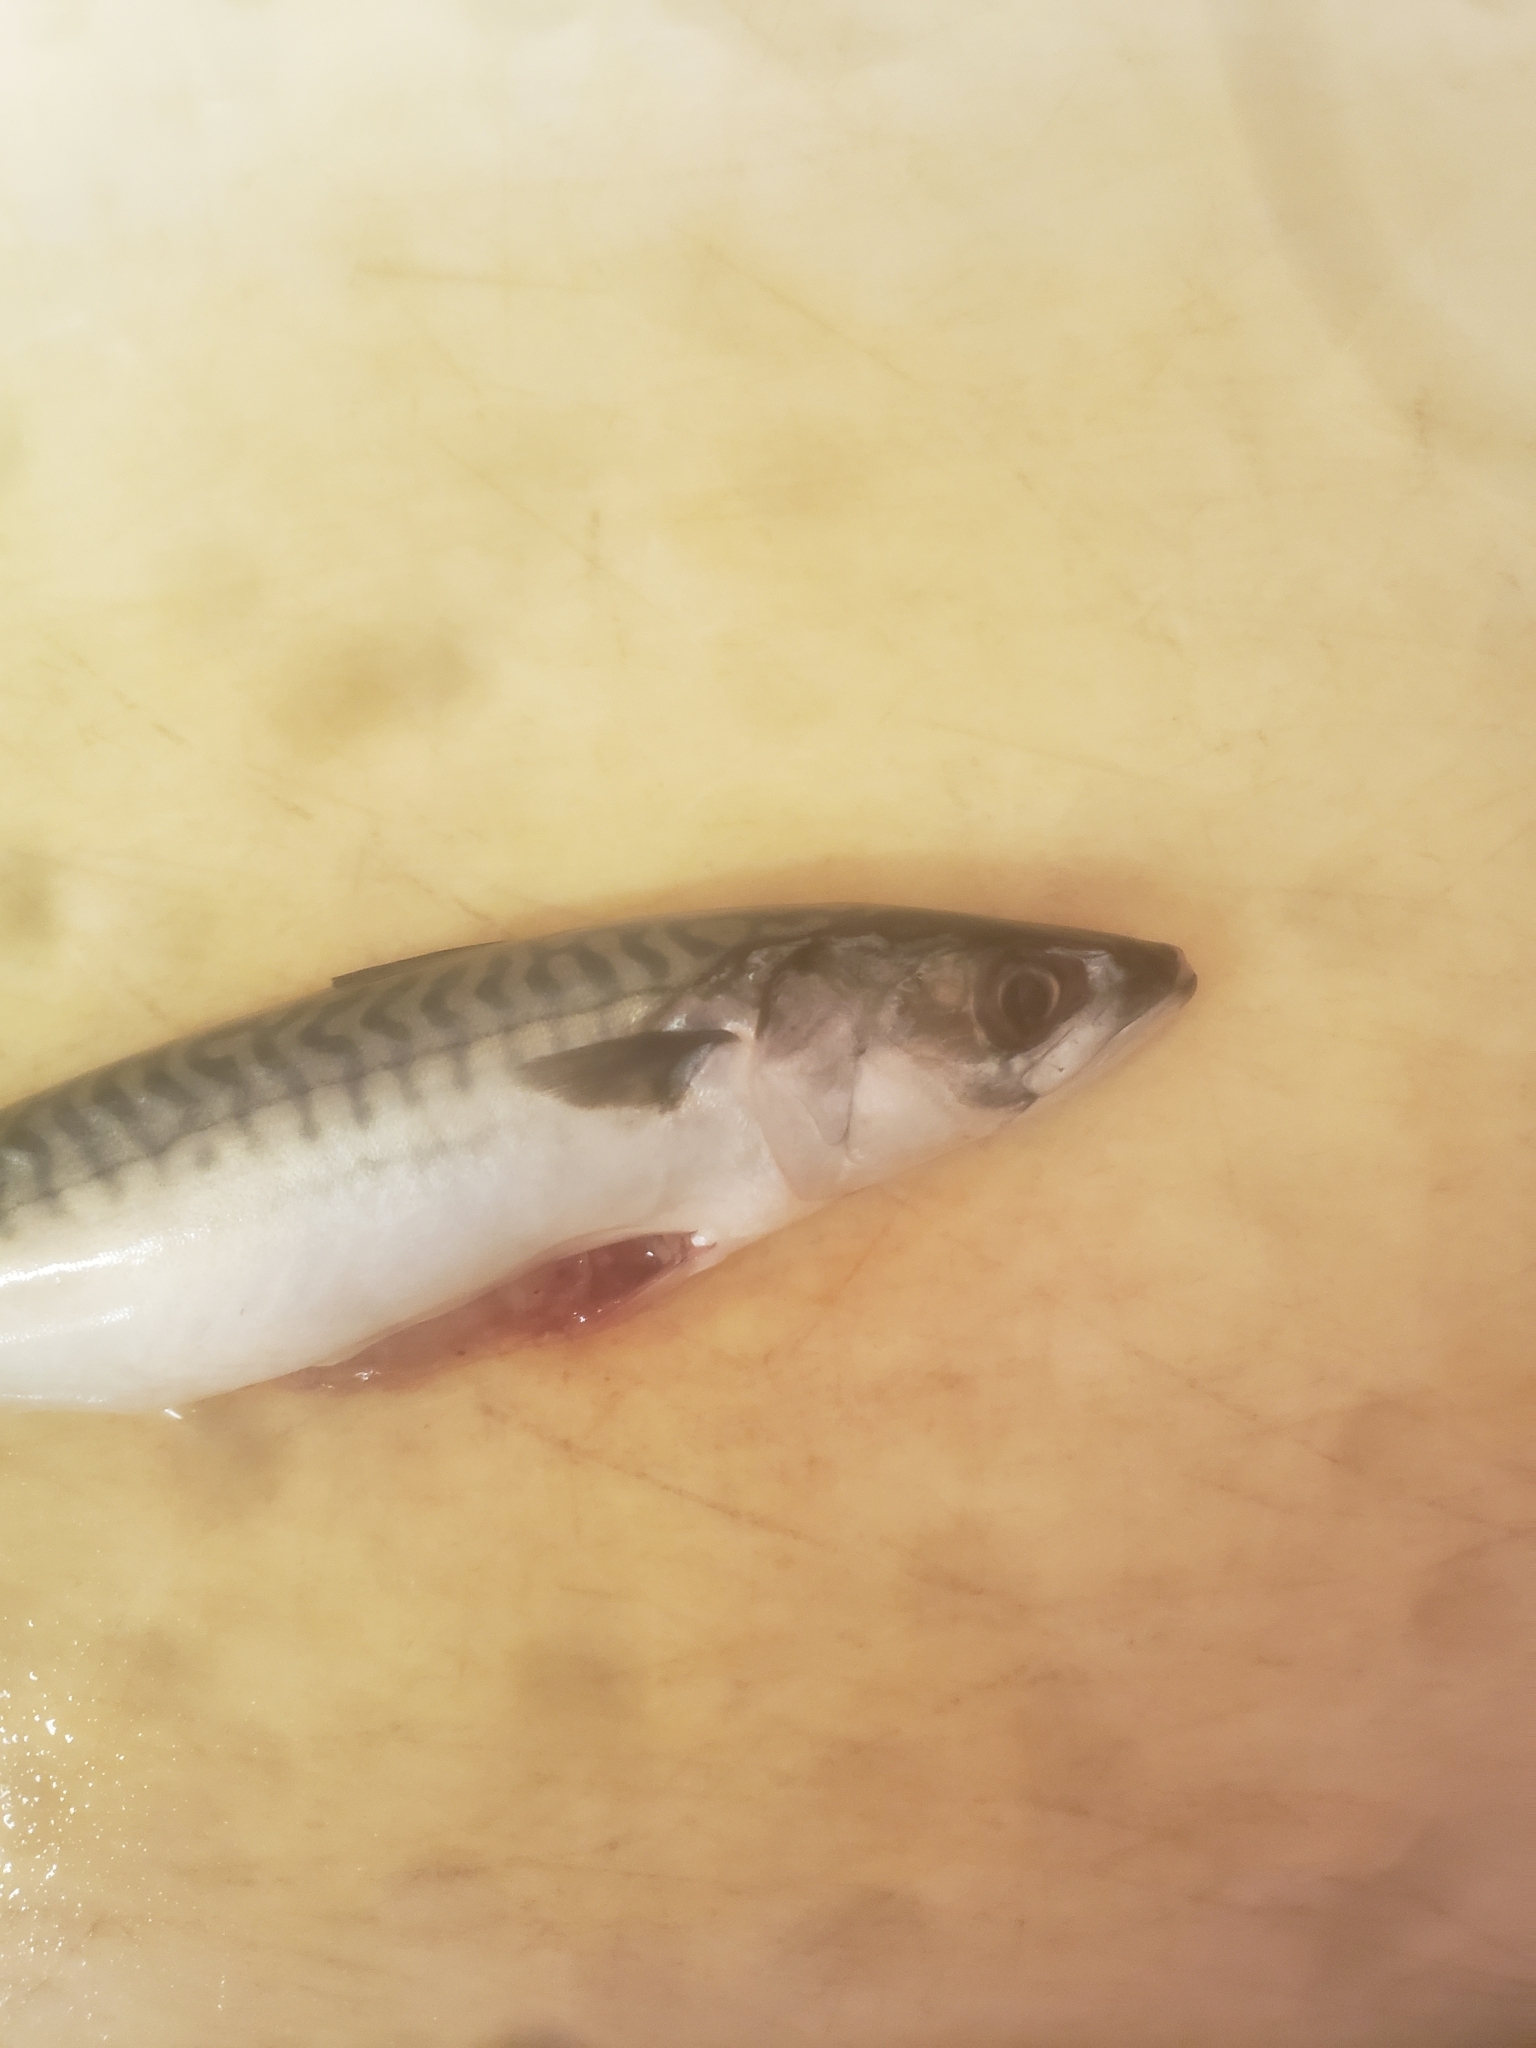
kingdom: Animalia
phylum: Chordata
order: Perciformes
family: Scombridae
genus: Scomber
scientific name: Scomber scombrus
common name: Mackerel
